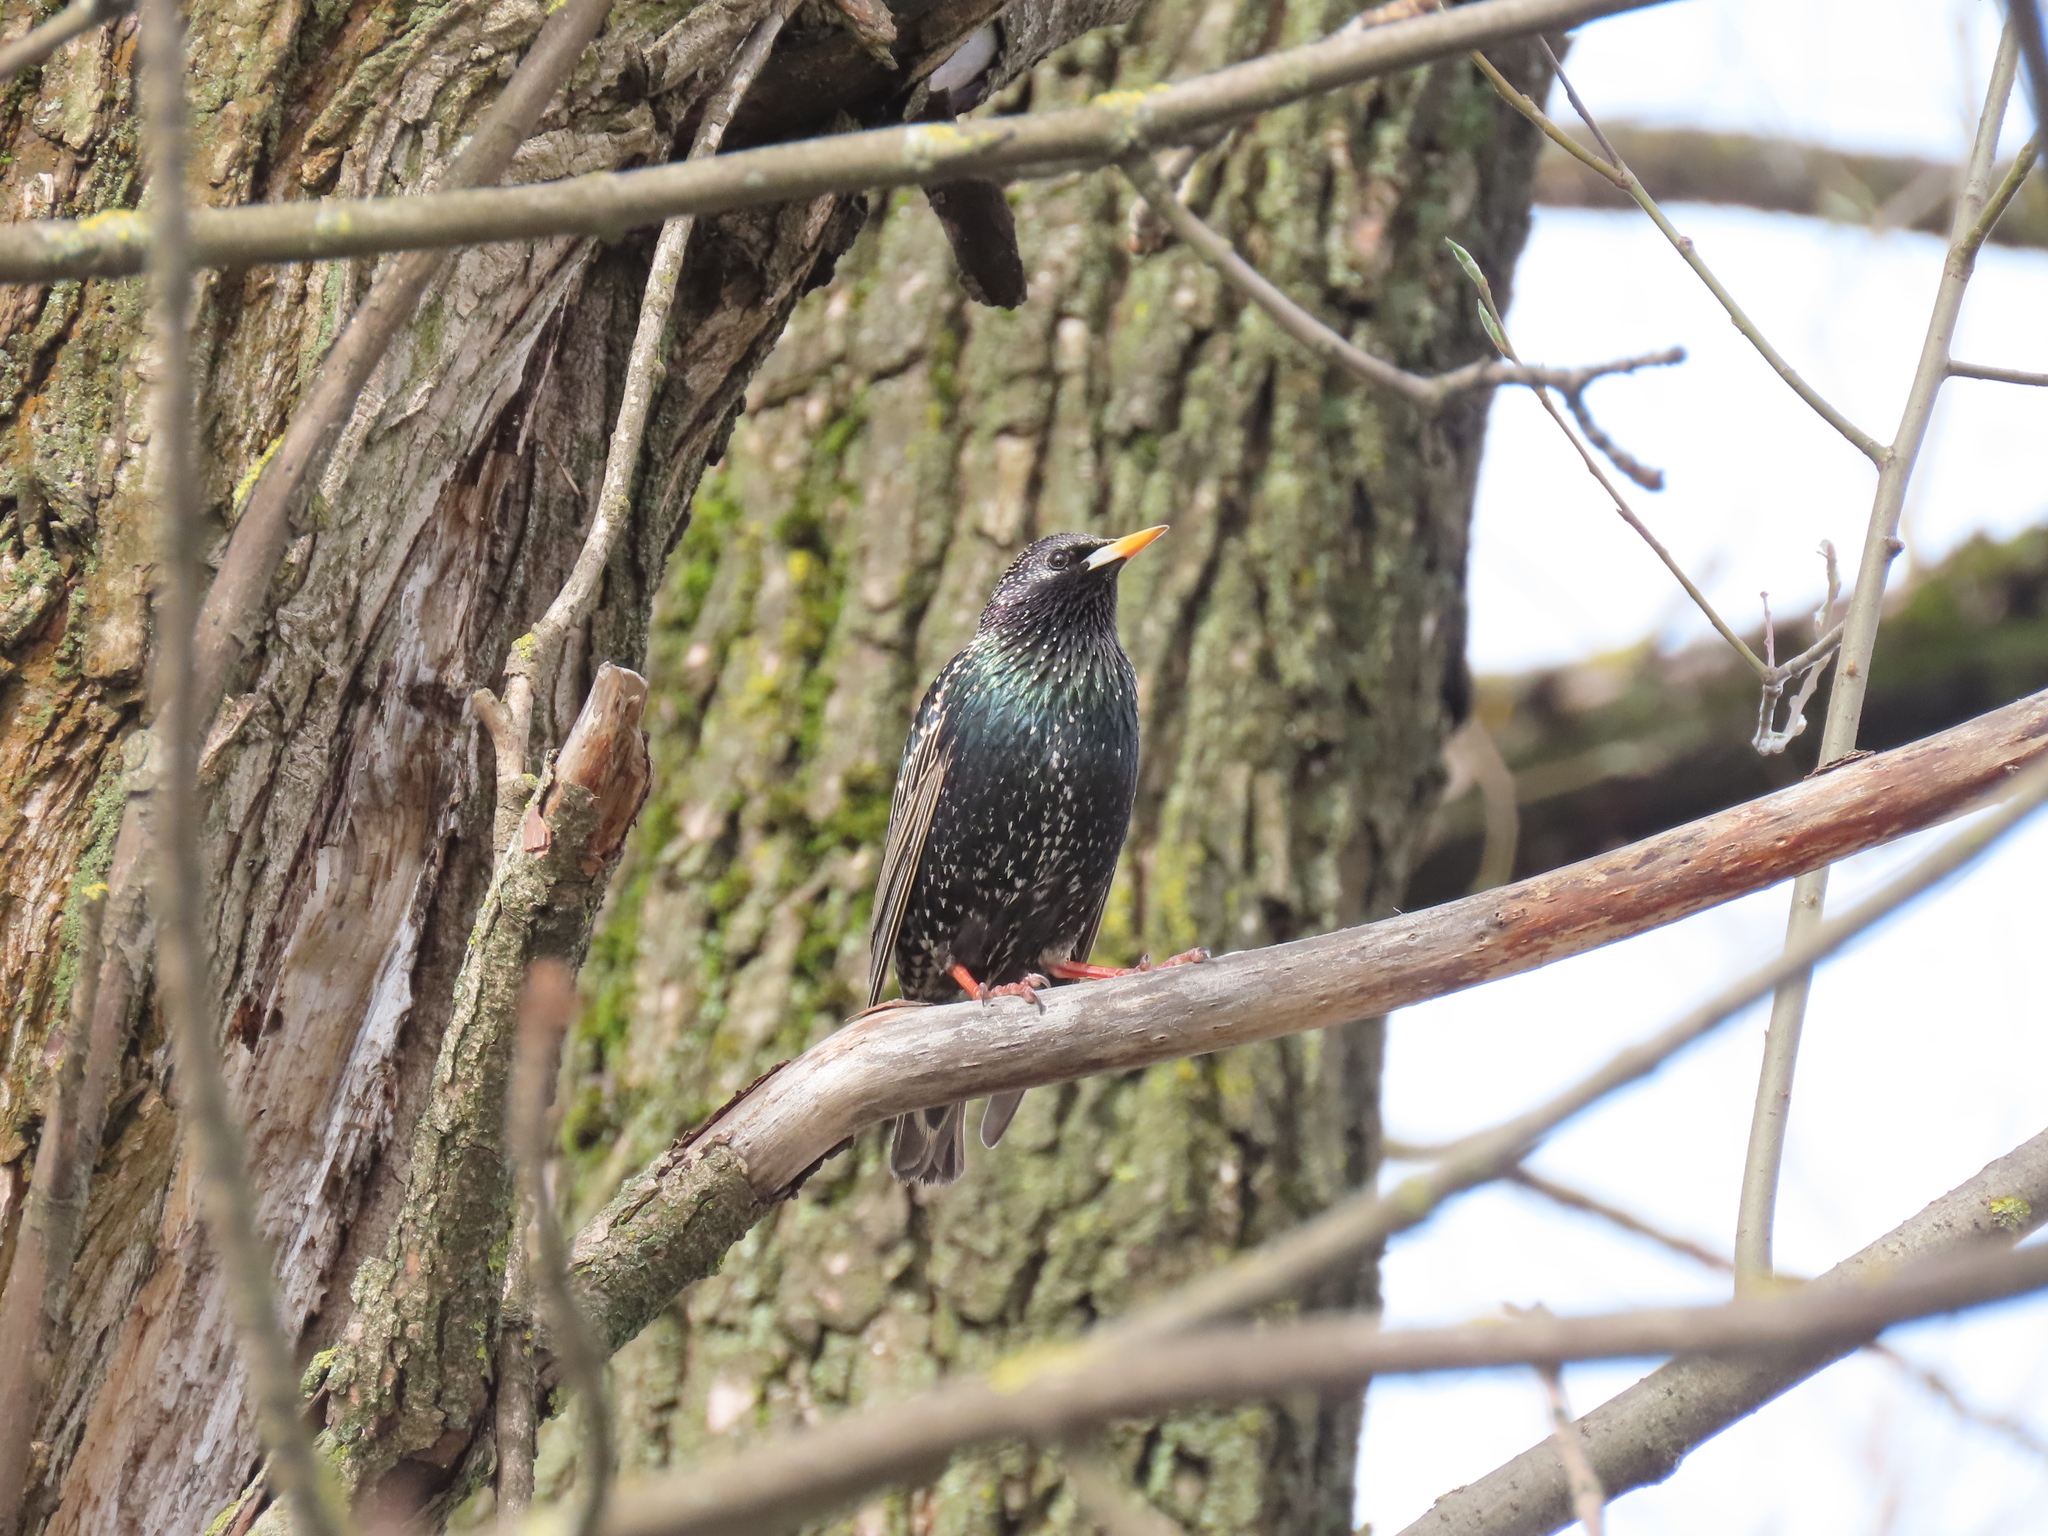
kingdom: Animalia
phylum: Chordata
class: Aves
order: Passeriformes
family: Sturnidae
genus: Sturnus
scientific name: Sturnus vulgaris
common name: Common starling
